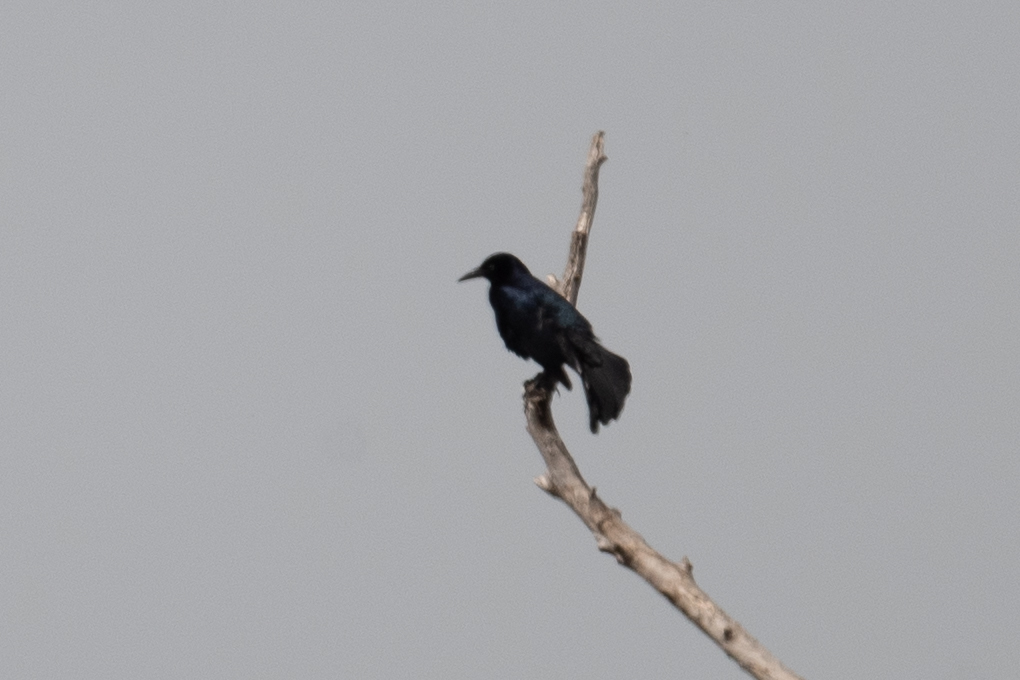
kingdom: Animalia
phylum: Chordata
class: Aves
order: Passeriformes
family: Icteridae
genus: Quiscalus
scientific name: Quiscalus mexicanus
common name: Great-tailed grackle
